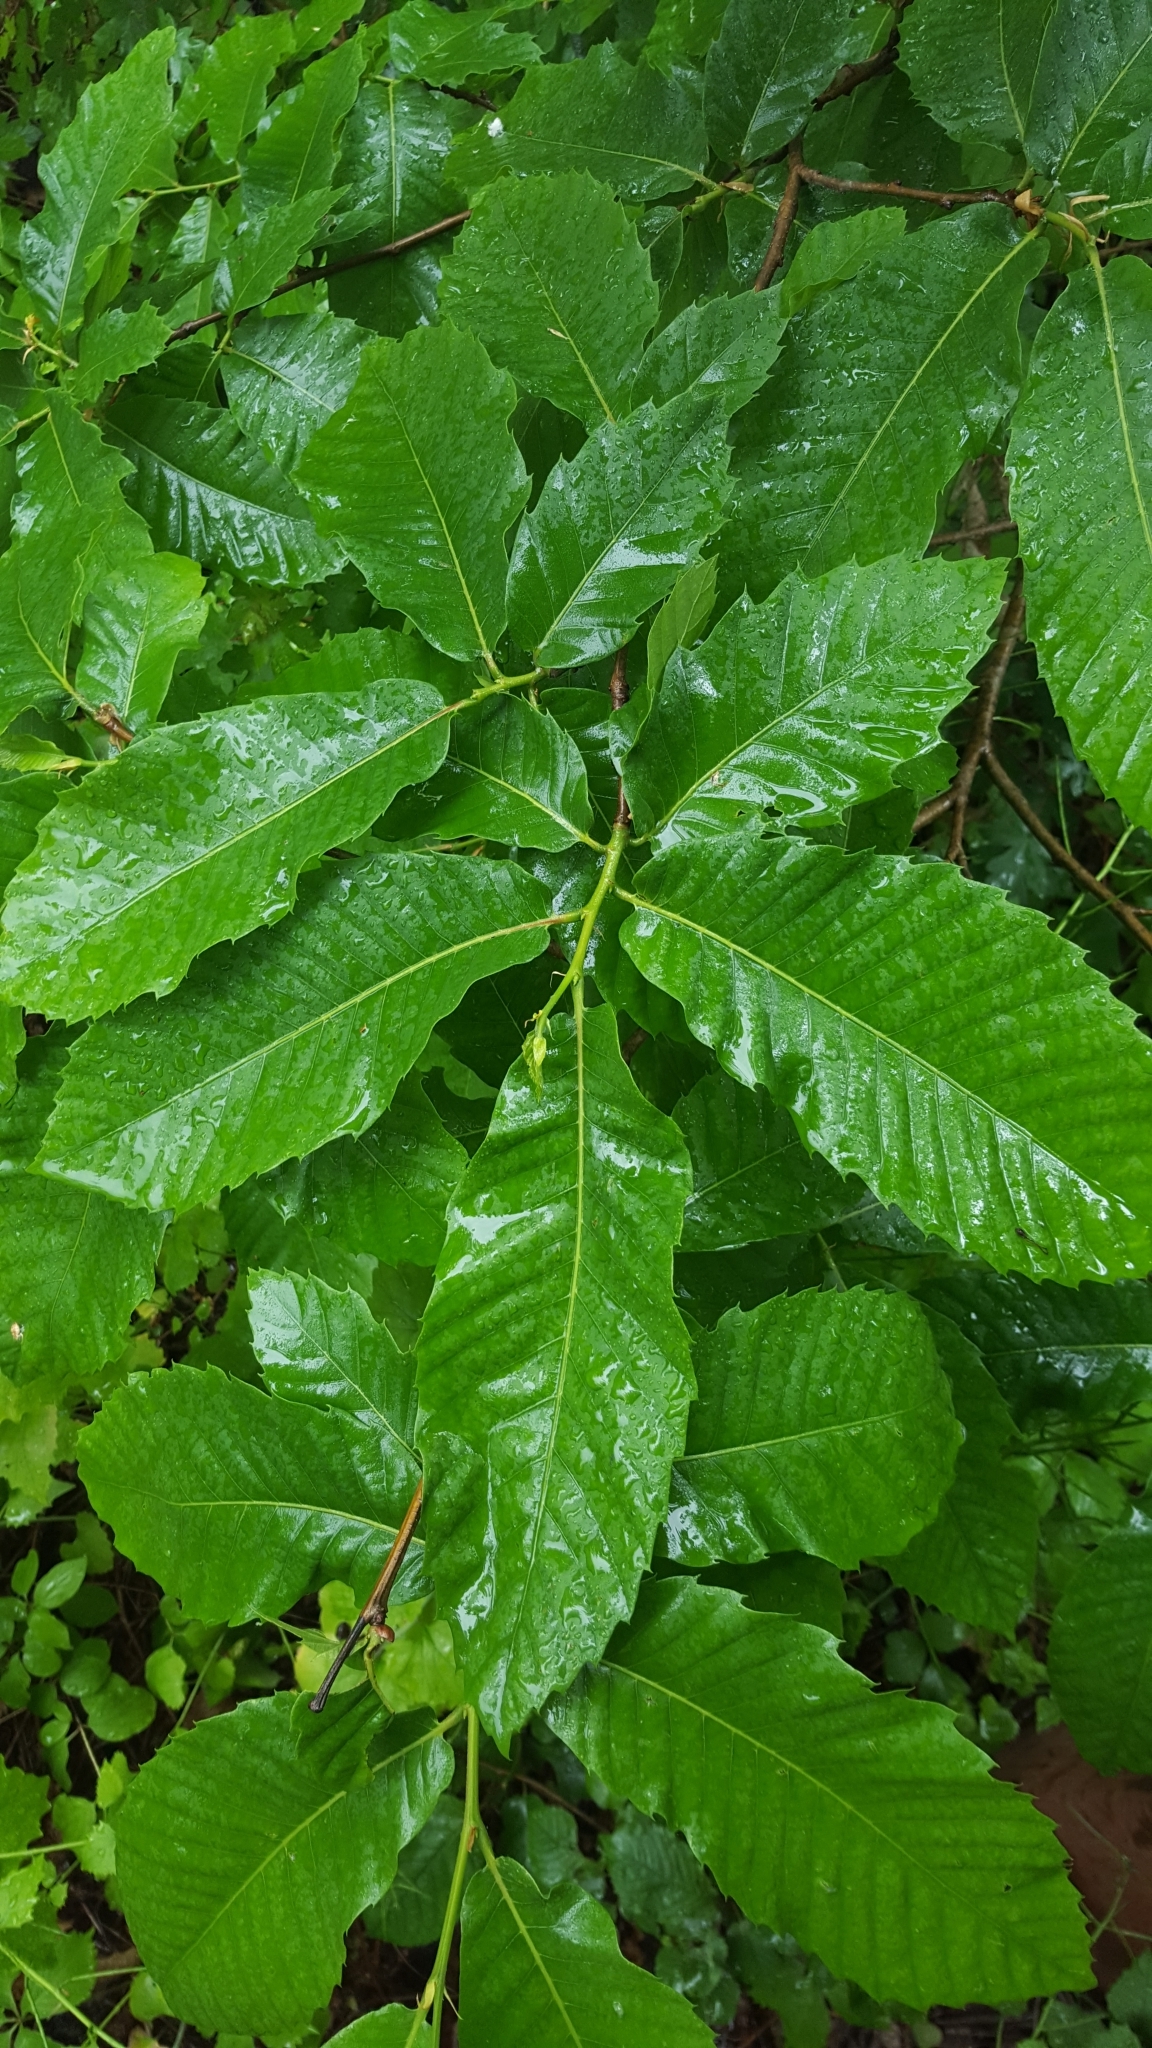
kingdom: Plantae
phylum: Tracheophyta
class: Magnoliopsida
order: Fagales
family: Fagaceae
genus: Castanea
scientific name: Castanea sativa
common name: Sweet chestnut
